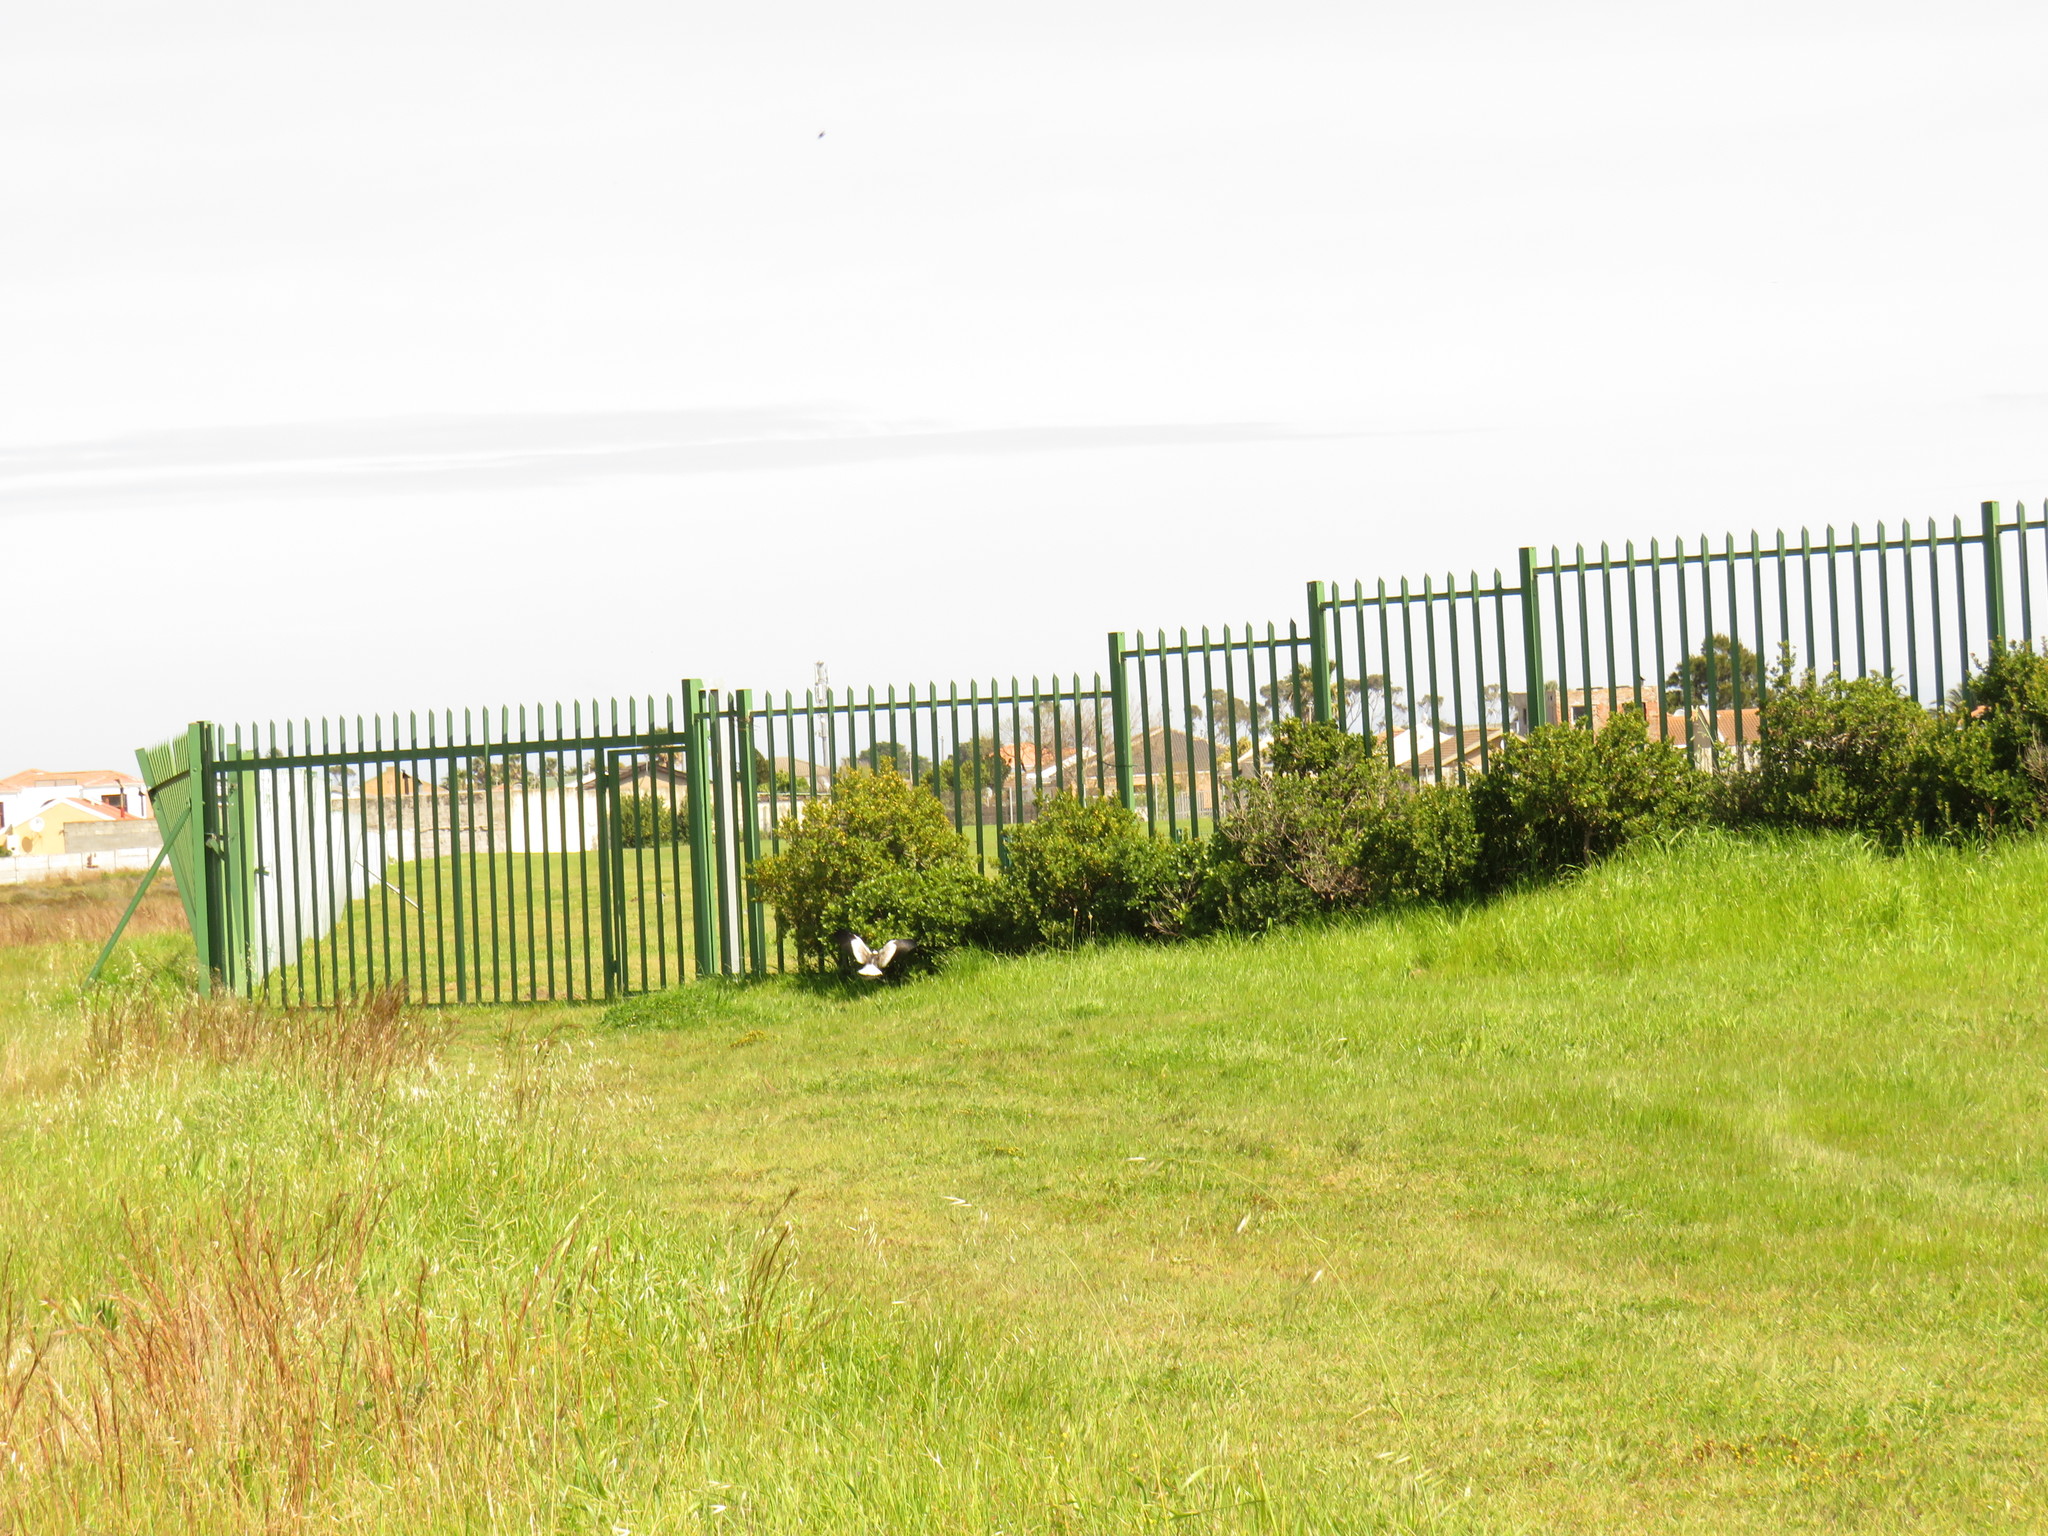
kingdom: Animalia
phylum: Chordata
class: Aves
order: Charadriiformes
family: Charadriidae
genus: Vanellus
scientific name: Vanellus armatus
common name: Blacksmith lapwing
